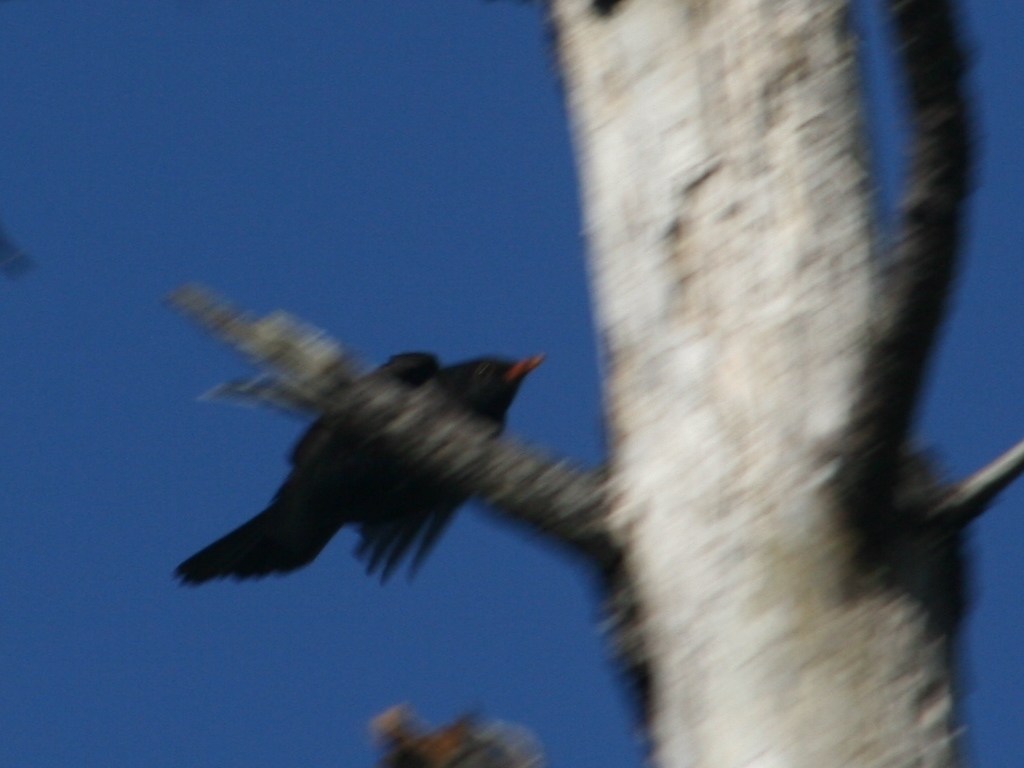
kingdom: Animalia
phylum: Chordata
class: Aves
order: Passeriformes
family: Turdidae
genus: Turdus
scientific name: Turdus merula
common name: Common blackbird
